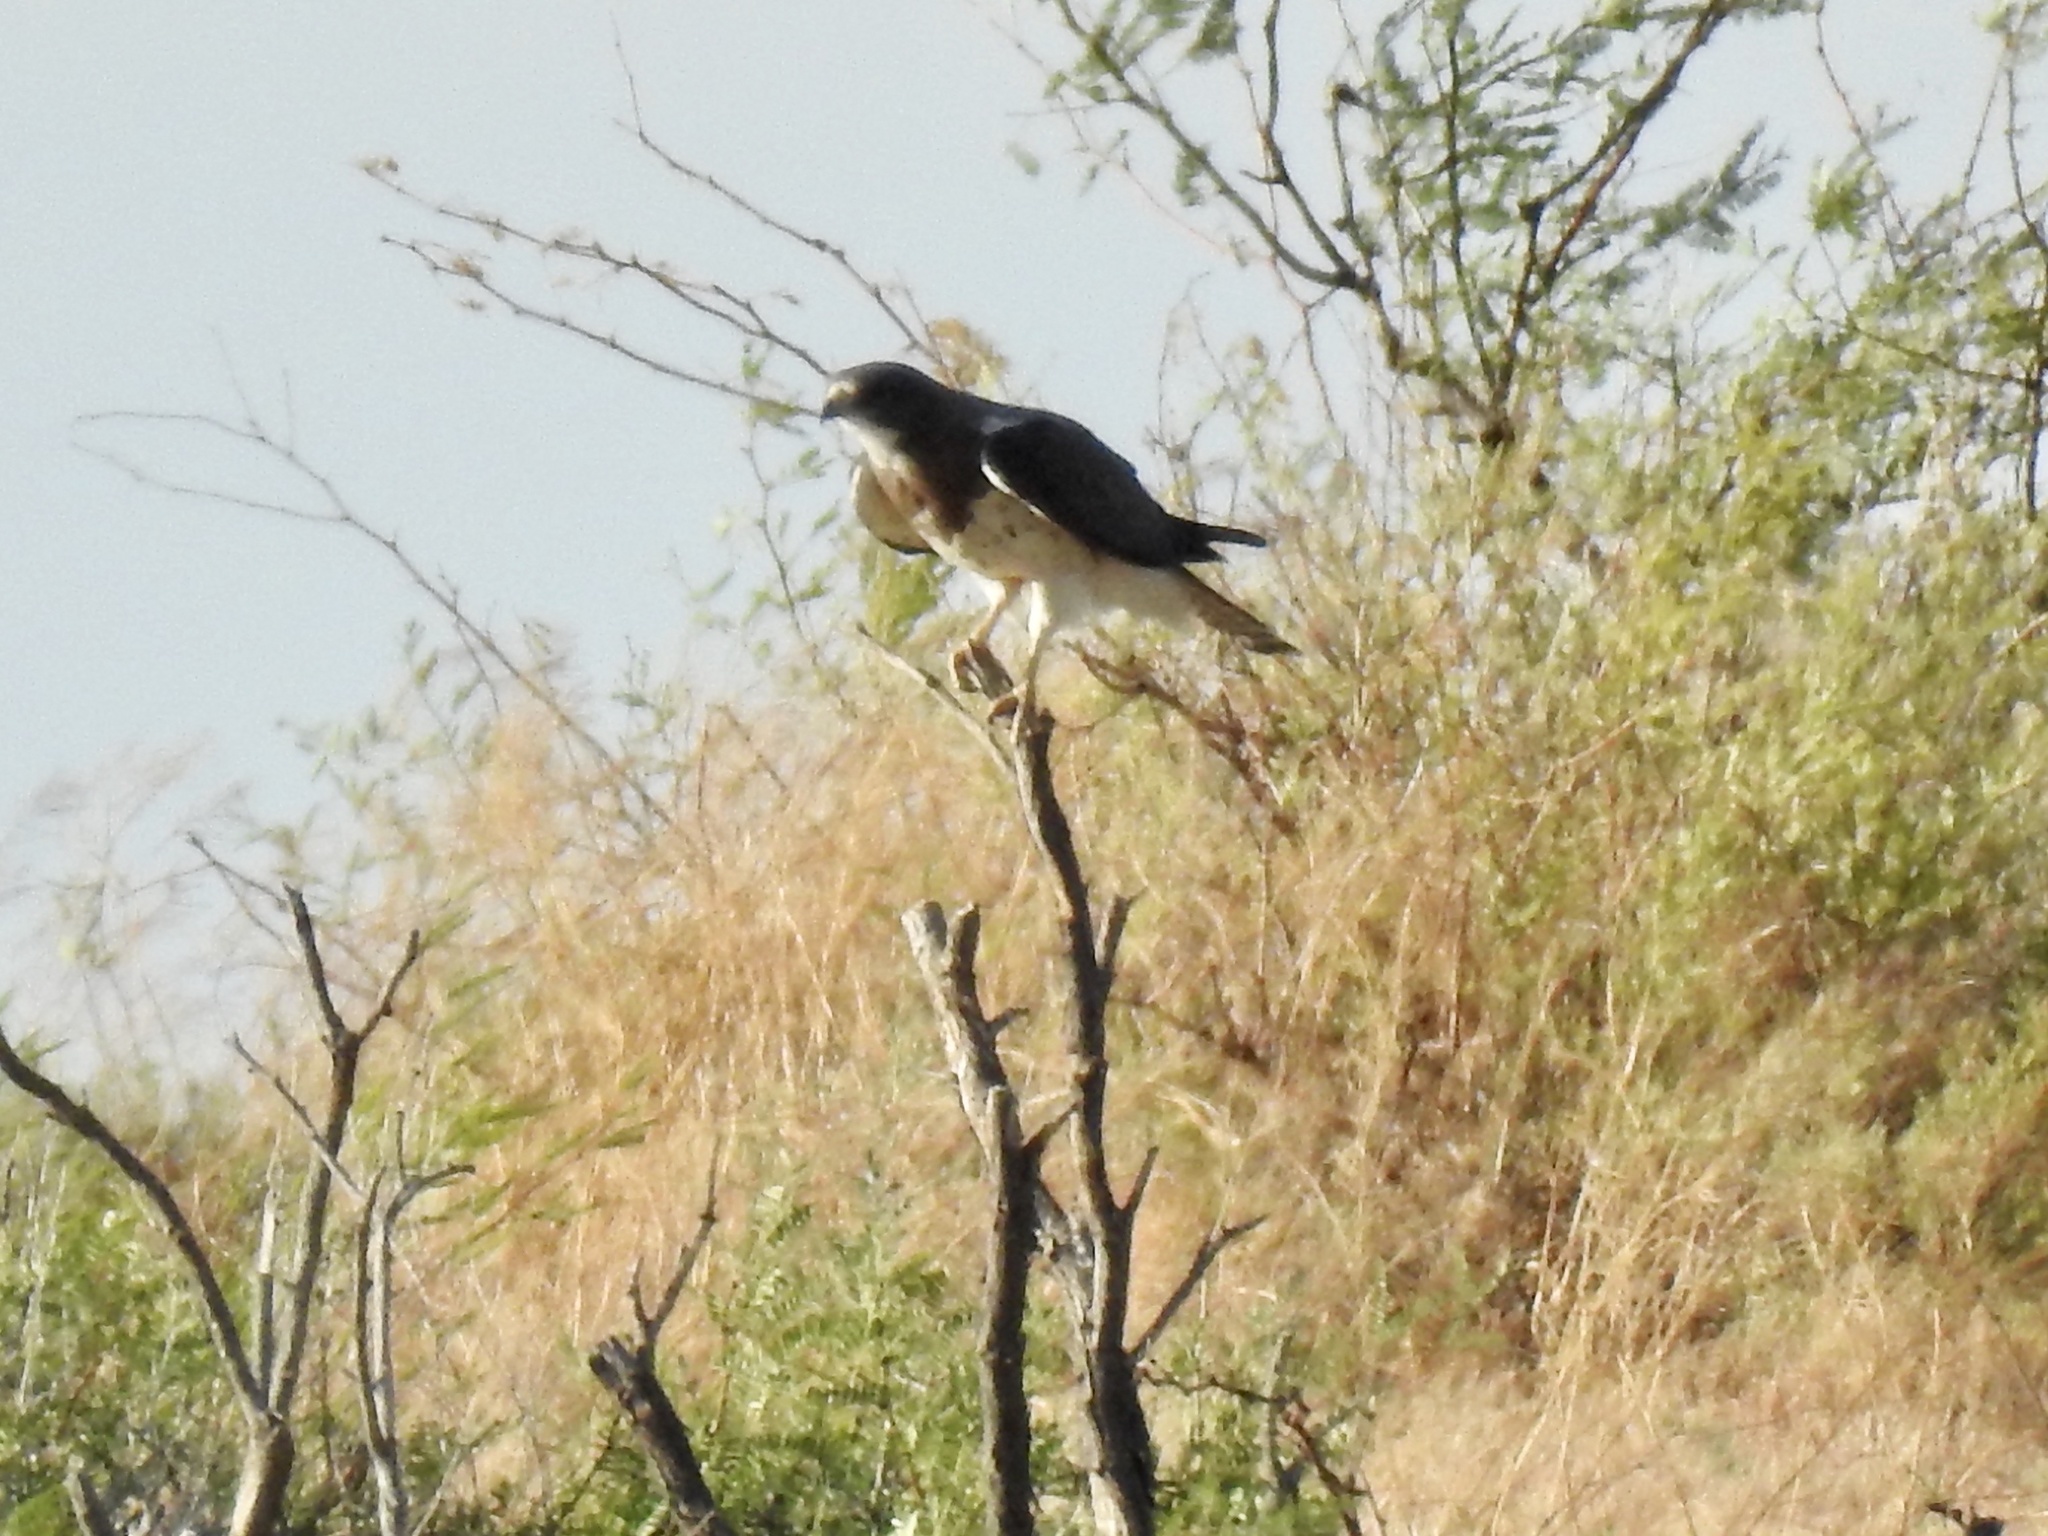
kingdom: Animalia
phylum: Chordata
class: Aves
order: Accipitriformes
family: Accipitridae
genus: Buteo
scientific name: Buteo swainsoni
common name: Swainson's hawk
